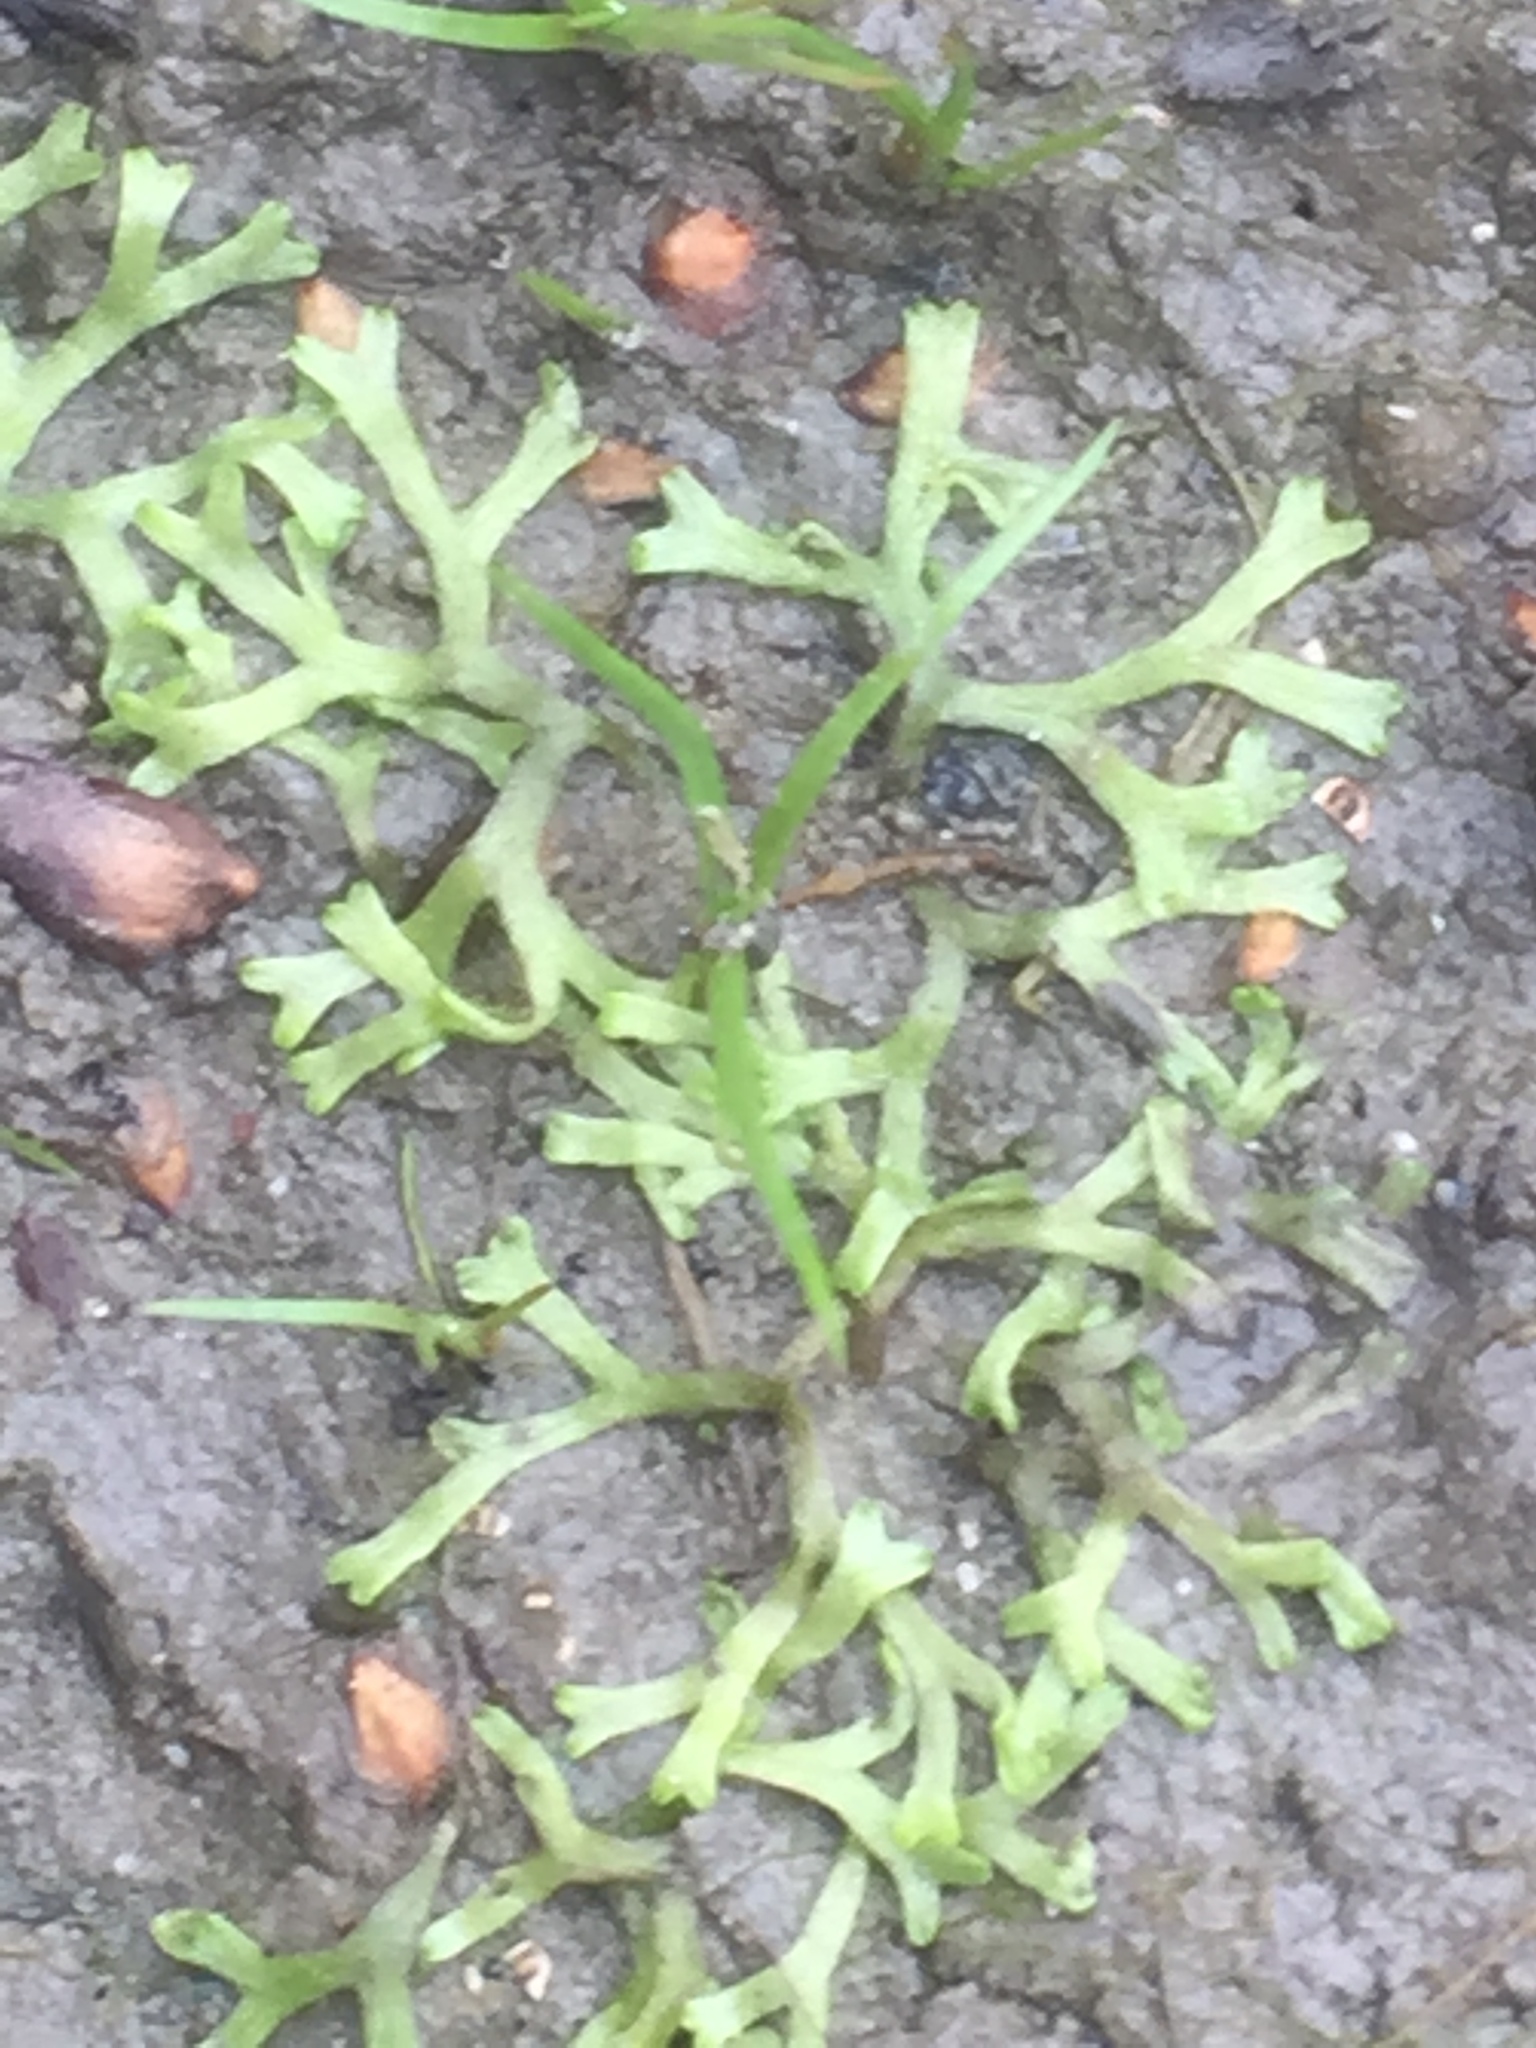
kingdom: Plantae
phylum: Marchantiophyta
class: Marchantiopsida
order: Marchantiales
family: Ricciaceae
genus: Riccia
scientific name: Riccia fluitans
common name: Floating crystalwort
